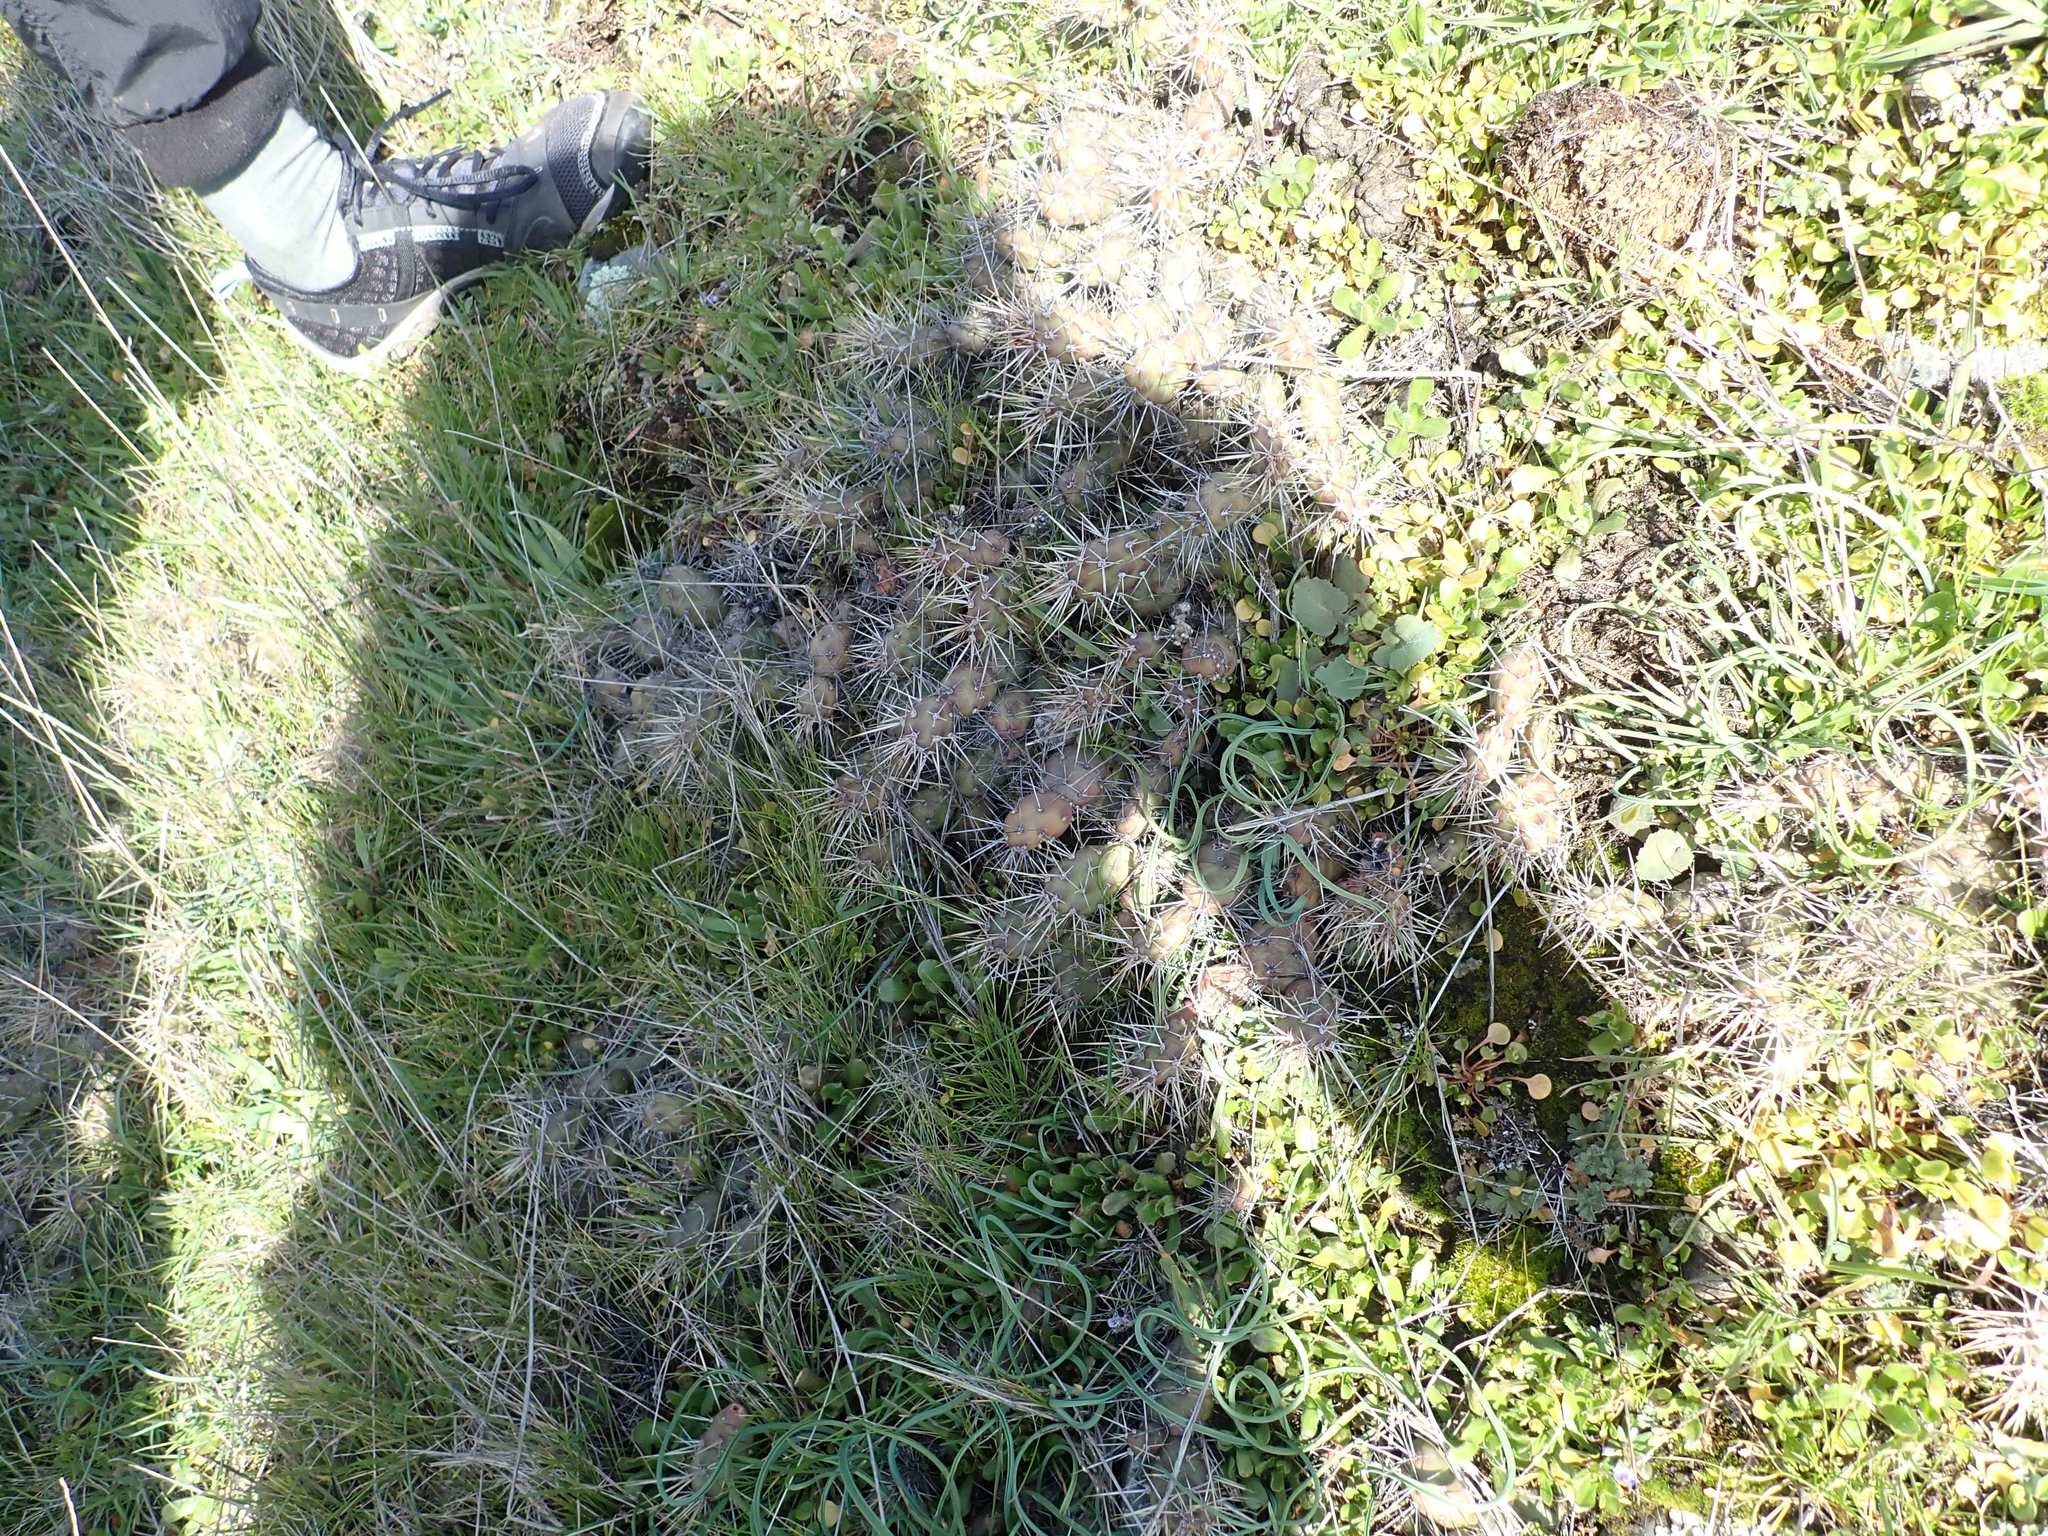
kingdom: Plantae
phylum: Tracheophyta
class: Magnoliopsida
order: Caryophyllales
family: Cactaceae
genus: Opuntia
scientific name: Opuntia fragilis
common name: Brittle cactus
